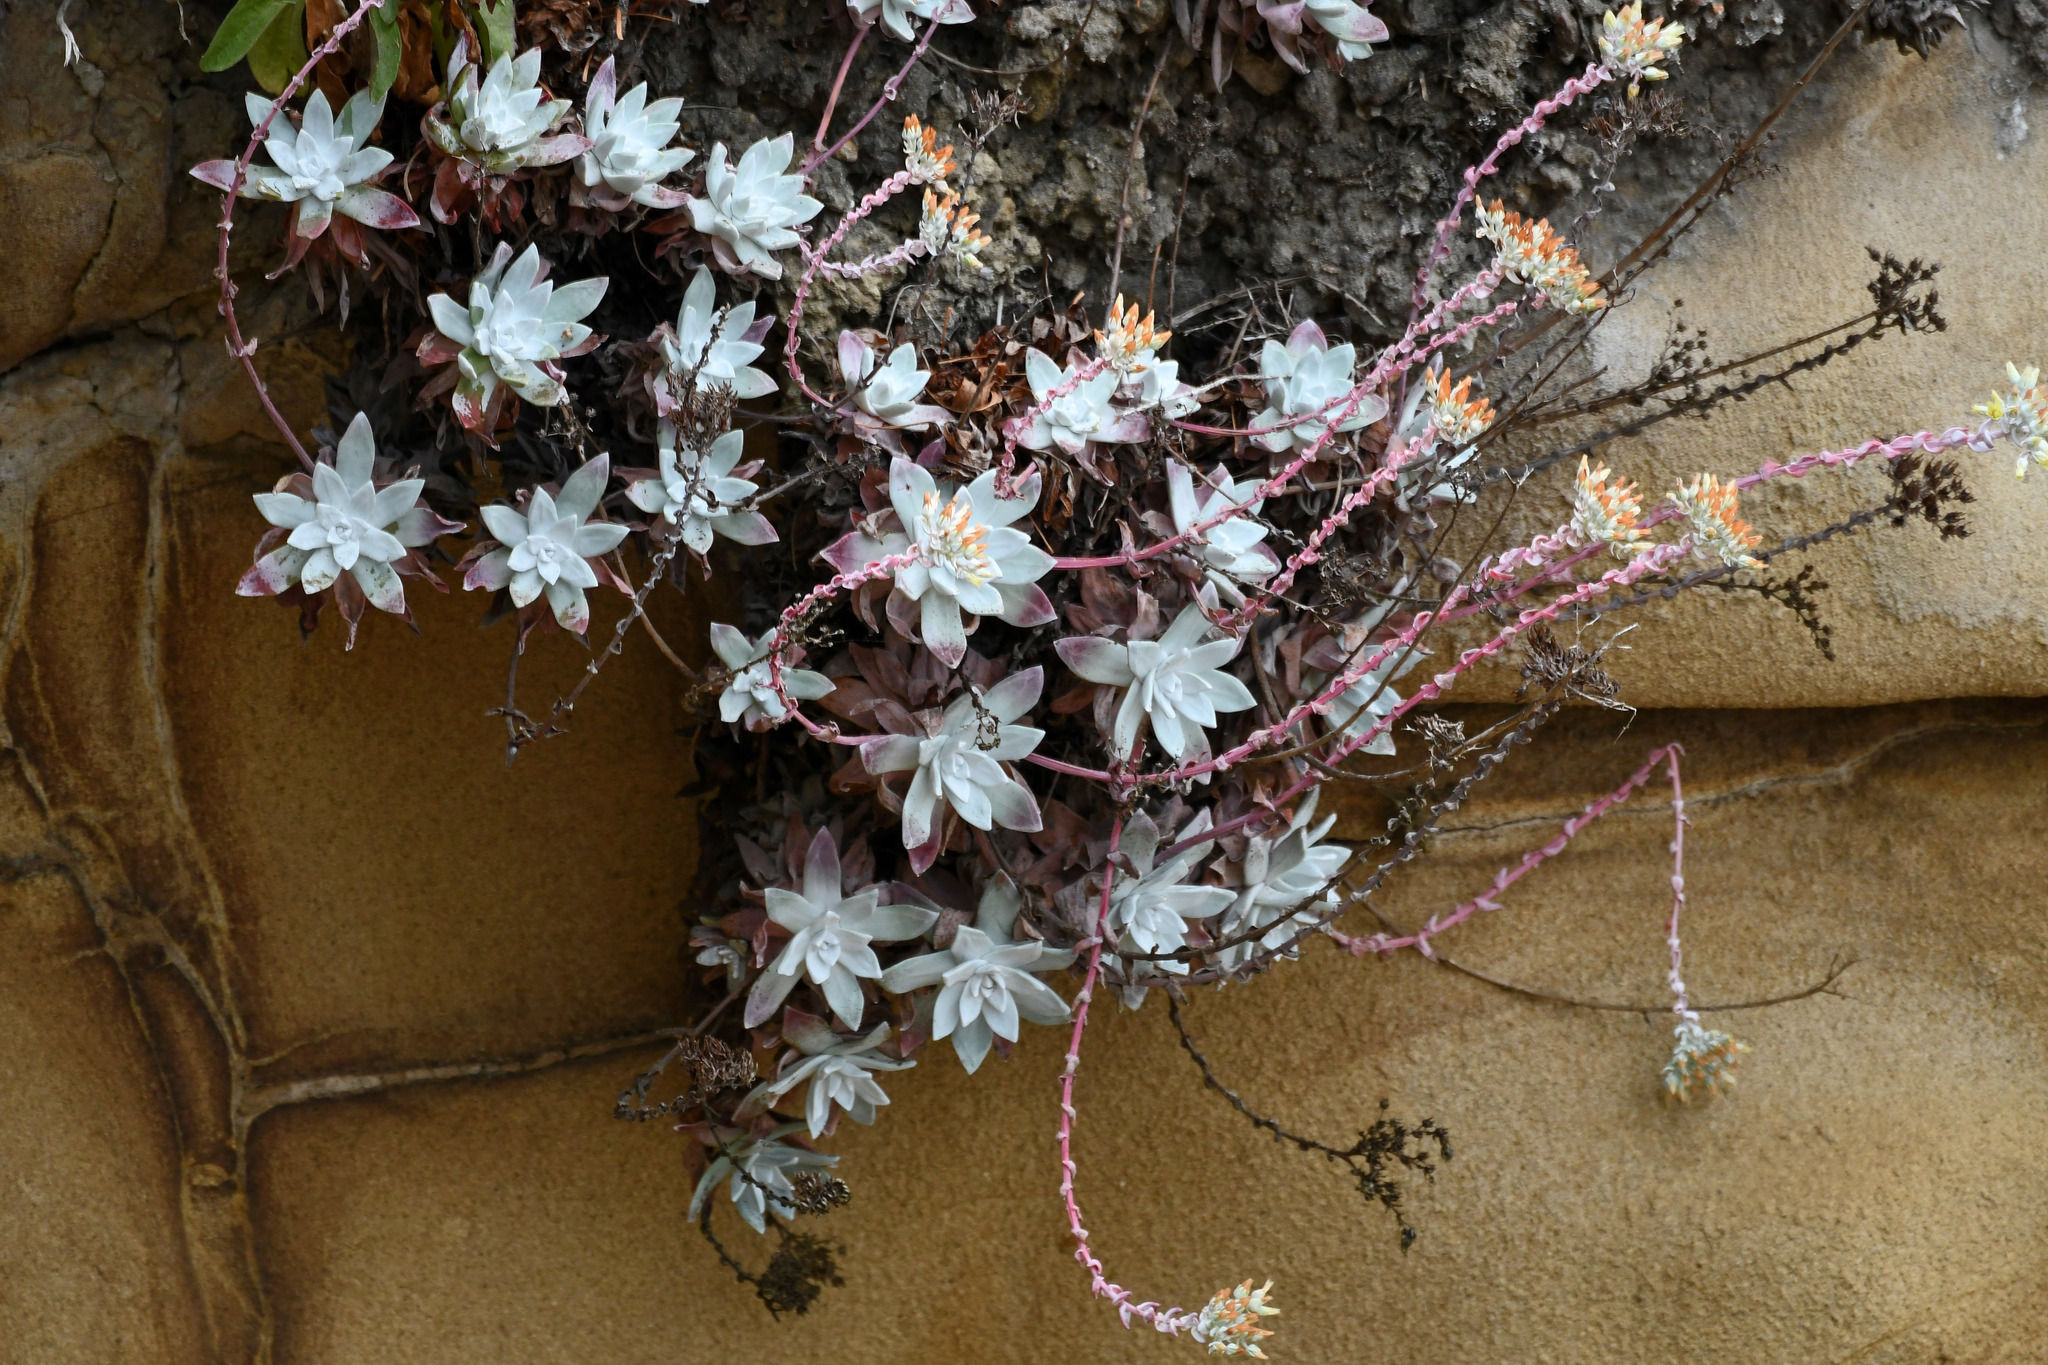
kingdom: Plantae
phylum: Tracheophyta
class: Magnoliopsida
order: Saxifragales
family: Crassulaceae
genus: Dudleya
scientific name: Dudleya farinosa
